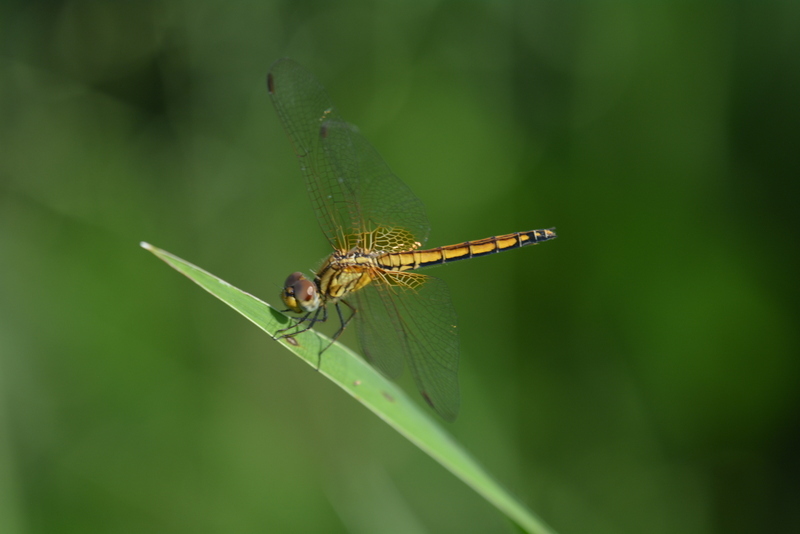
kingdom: Animalia
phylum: Arthropoda
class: Insecta
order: Odonata
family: Libellulidae
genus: Trithemis
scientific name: Trithemis aurora
